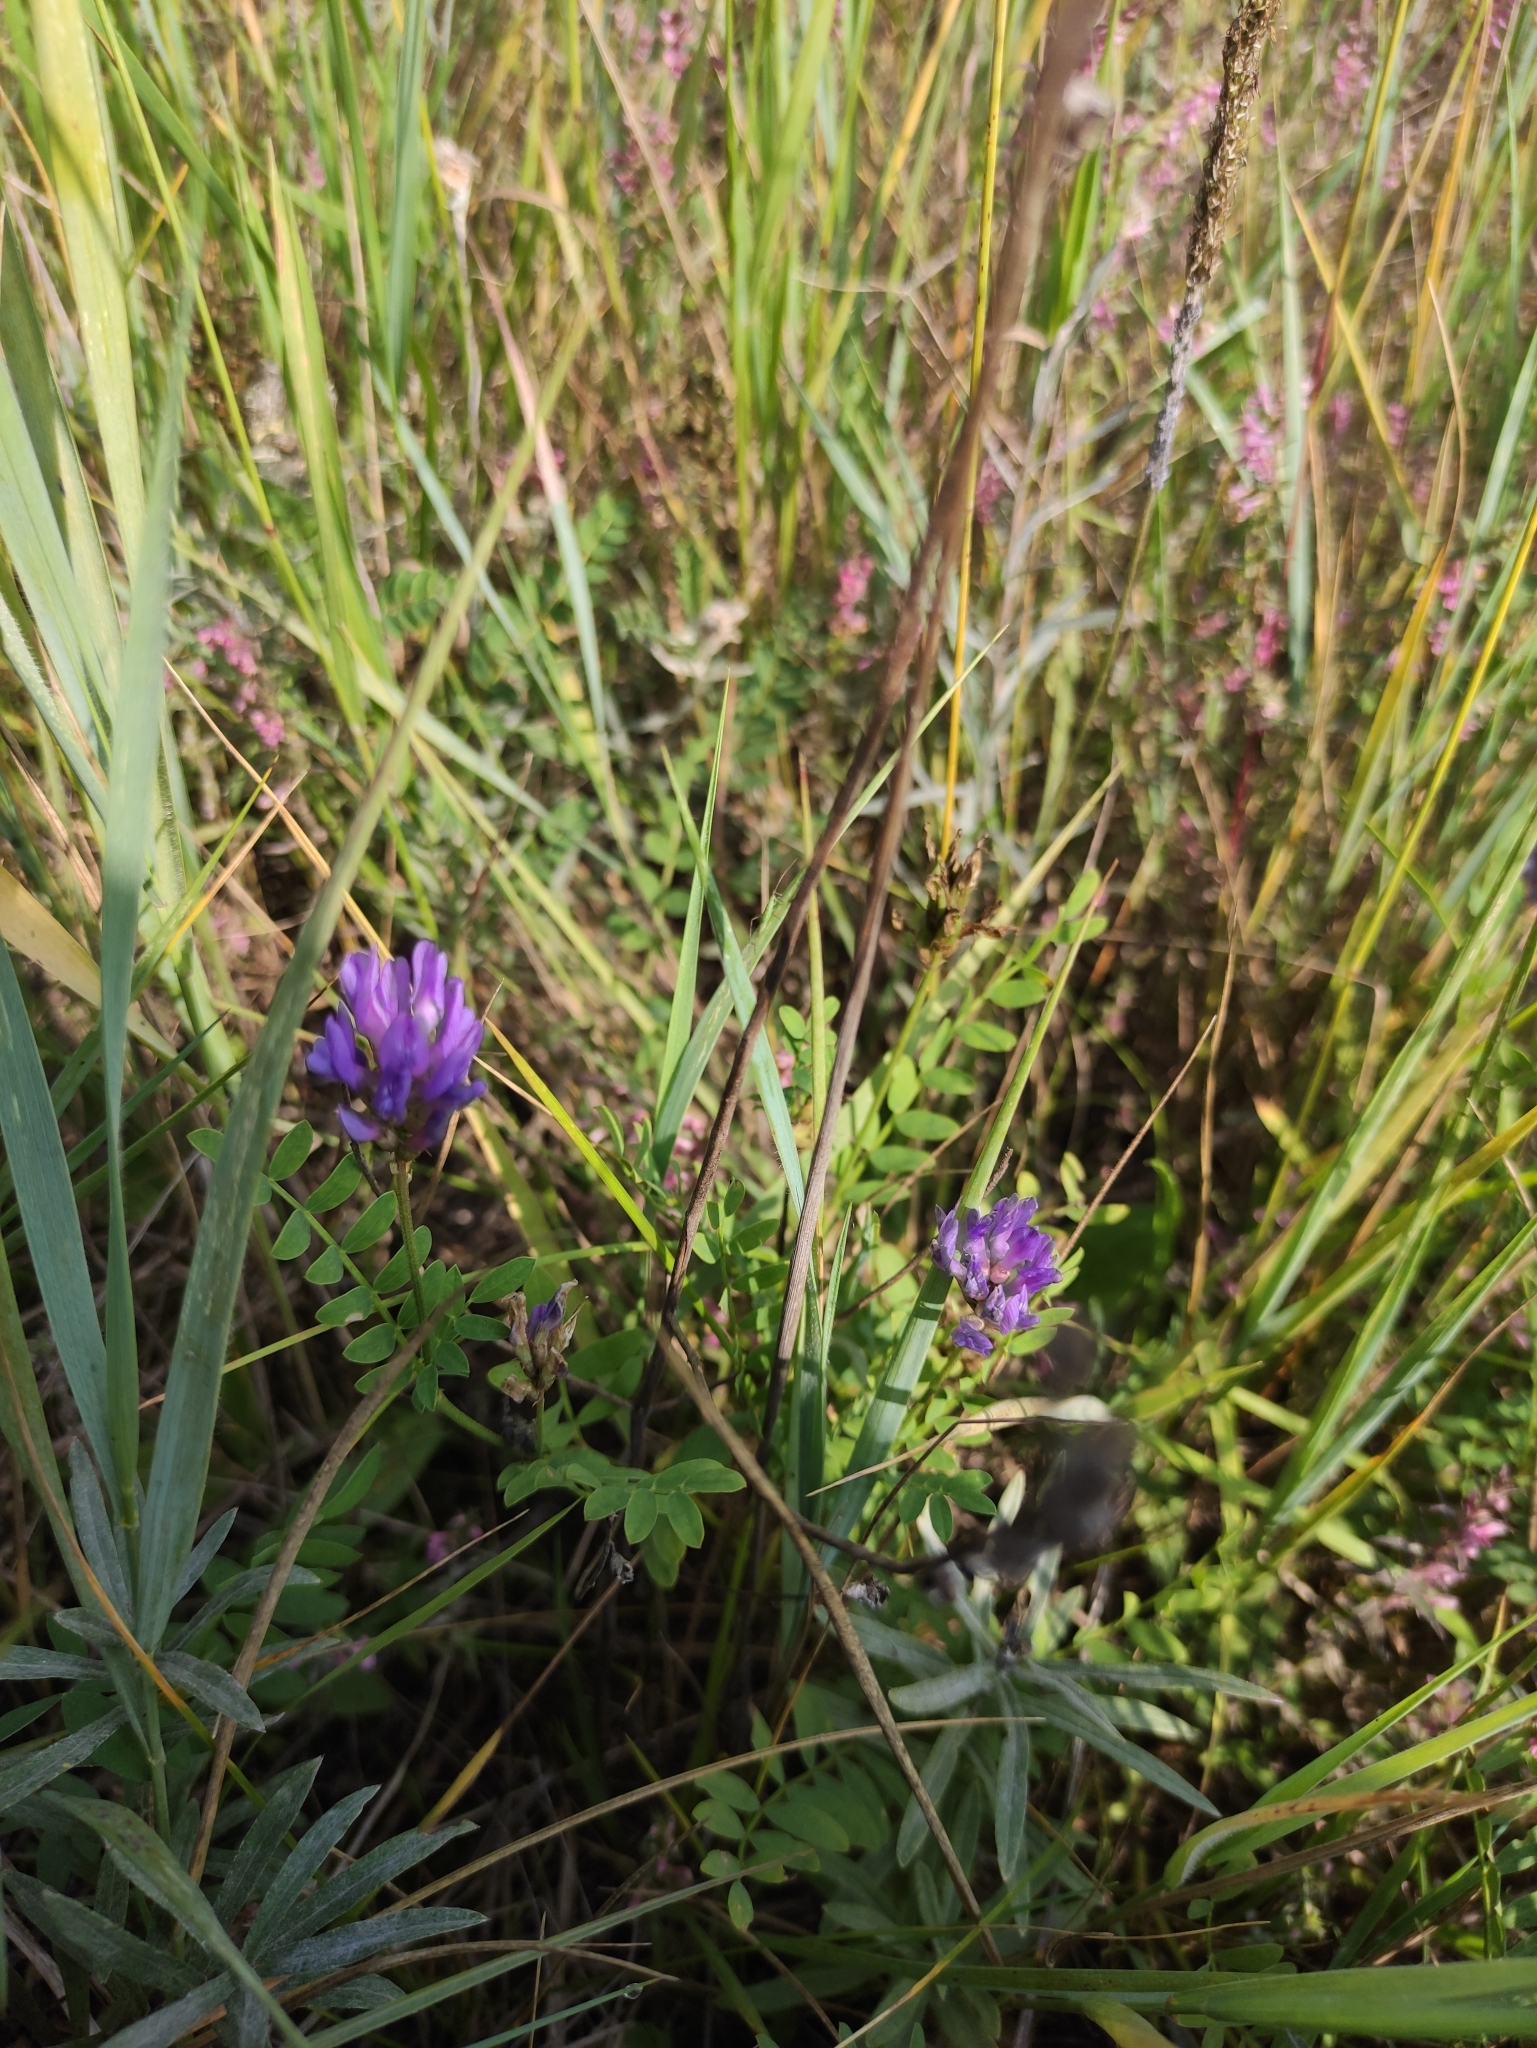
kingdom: Plantae
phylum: Tracheophyta
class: Magnoliopsida
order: Fabales
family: Fabaceae
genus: Astragalus
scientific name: Astragalus laxmannii
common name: Laxmann's milk-vetch
